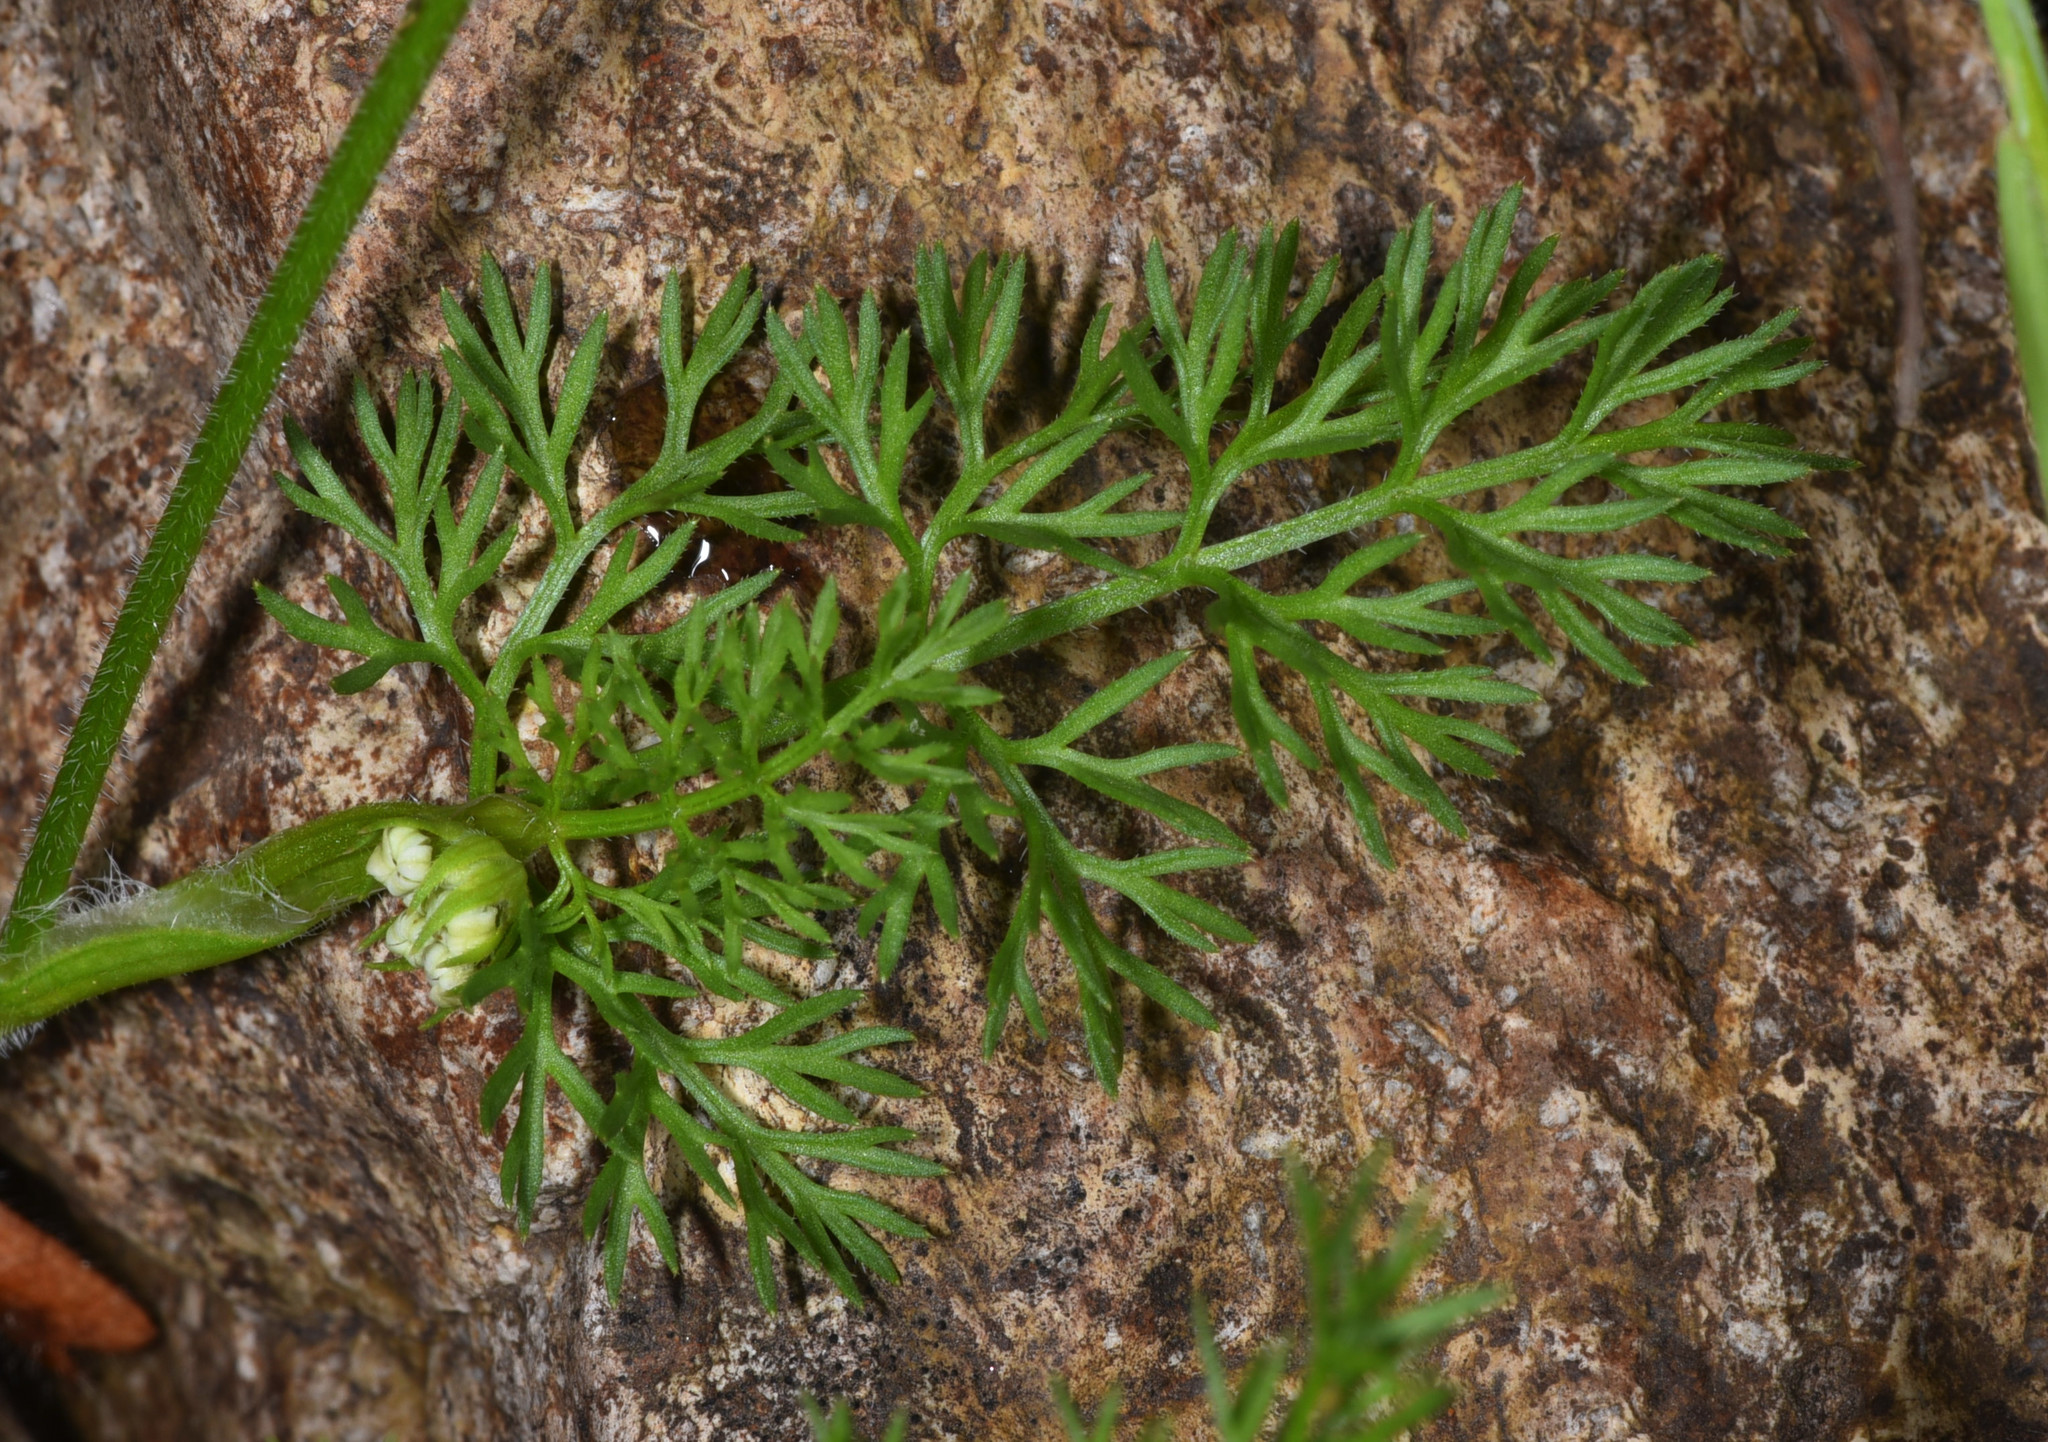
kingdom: Plantae
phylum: Tracheophyta
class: Magnoliopsida
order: Apiales
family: Apiaceae
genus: Scandix
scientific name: Scandix pecten-veneris
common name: Shepherd's-needle
